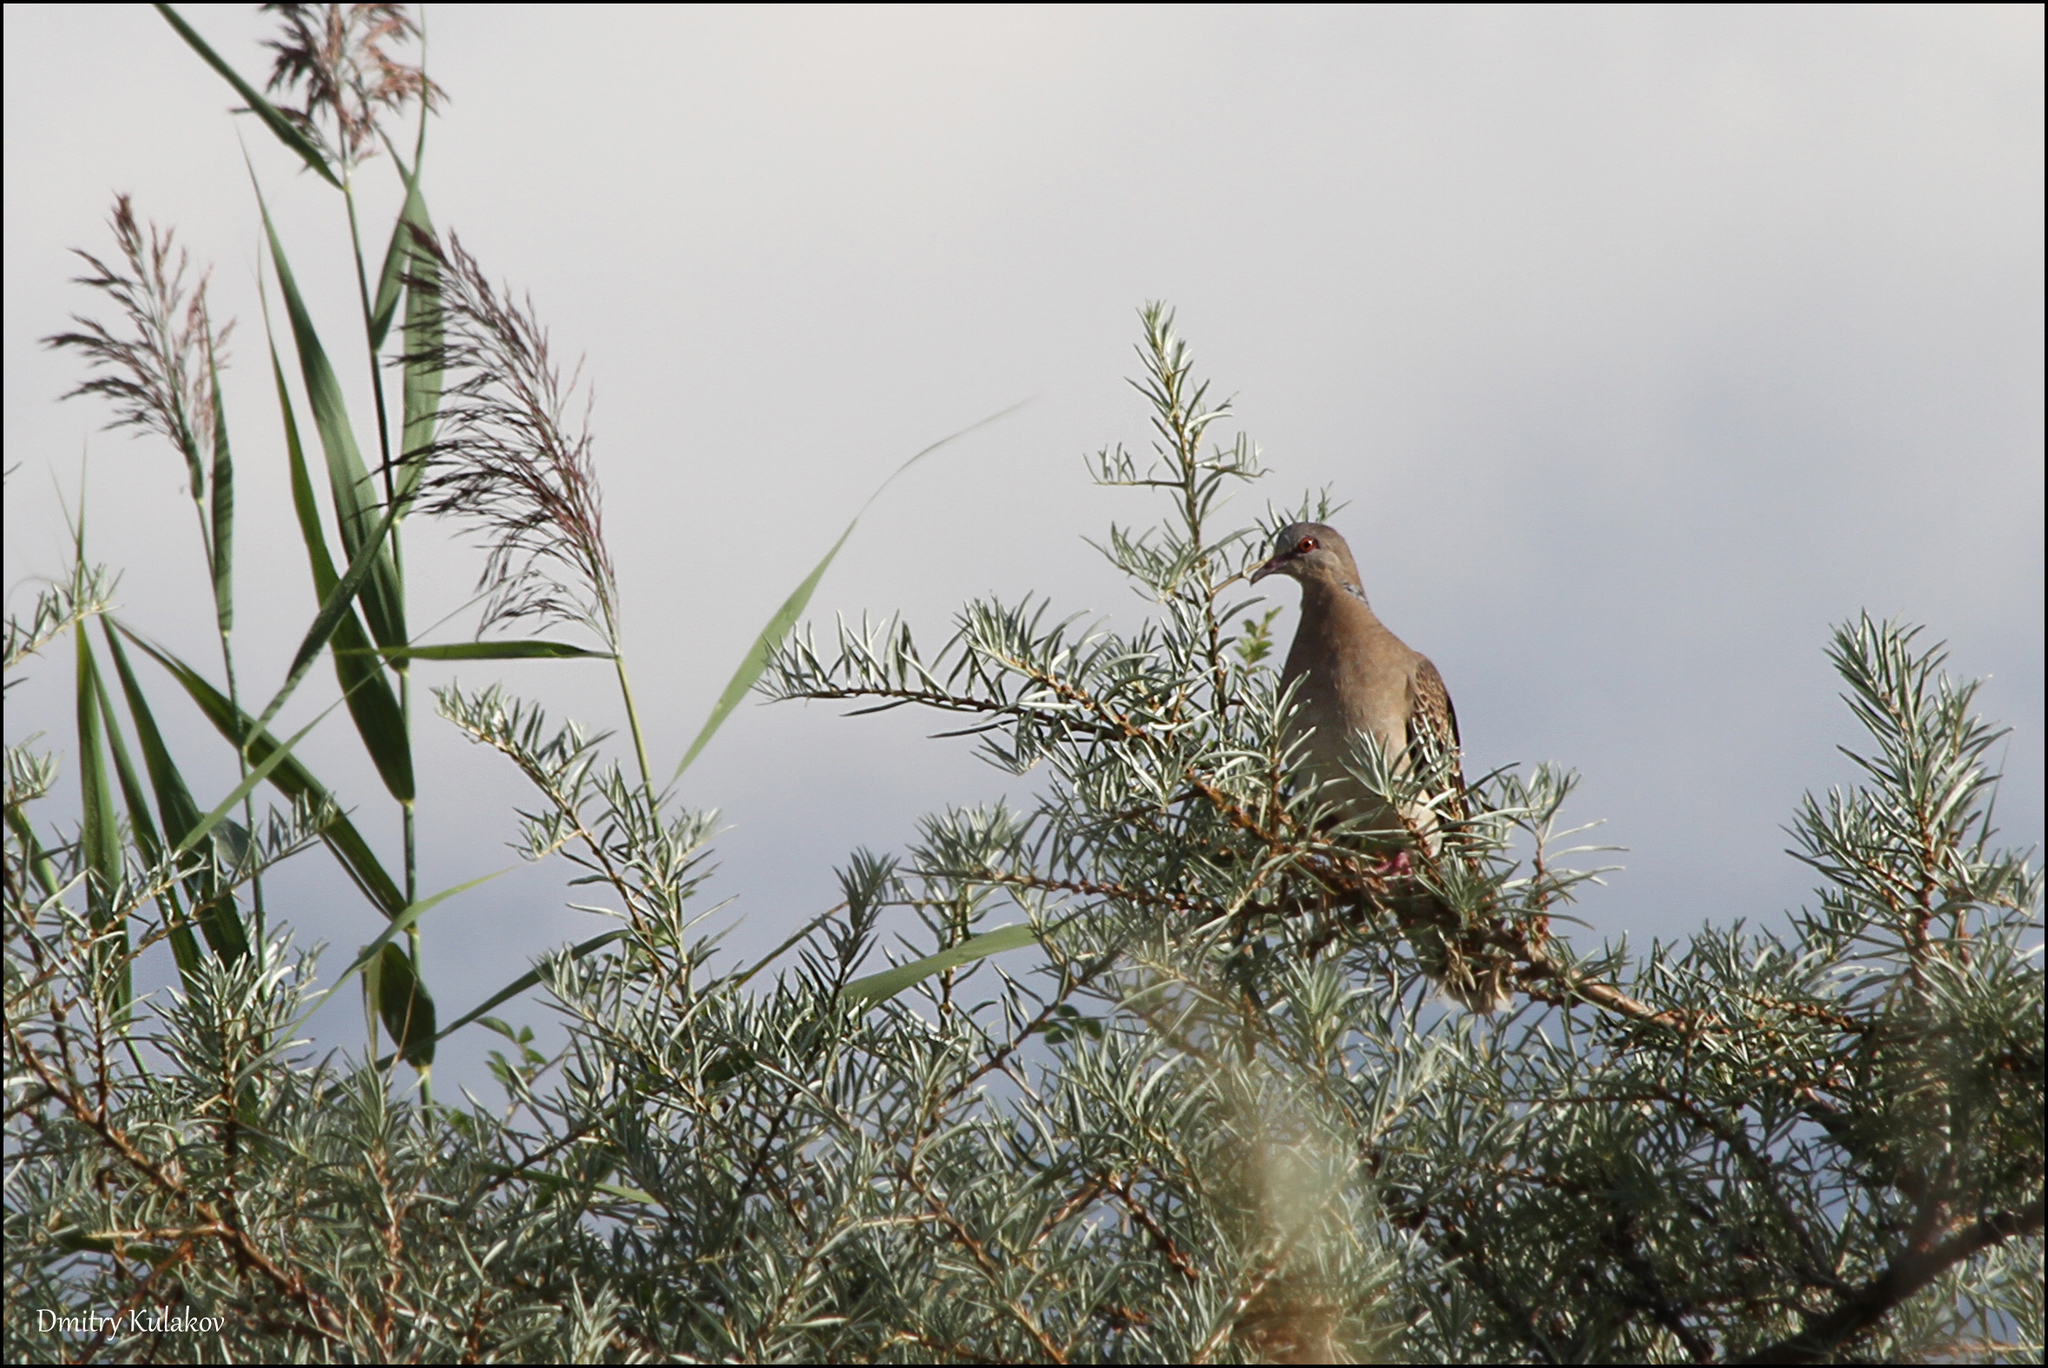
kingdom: Animalia
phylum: Chordata
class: Aves
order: Columbiformes
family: Columbidae
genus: Streptopelia
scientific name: Streptopelia orientalis
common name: Oriental turtle dove
